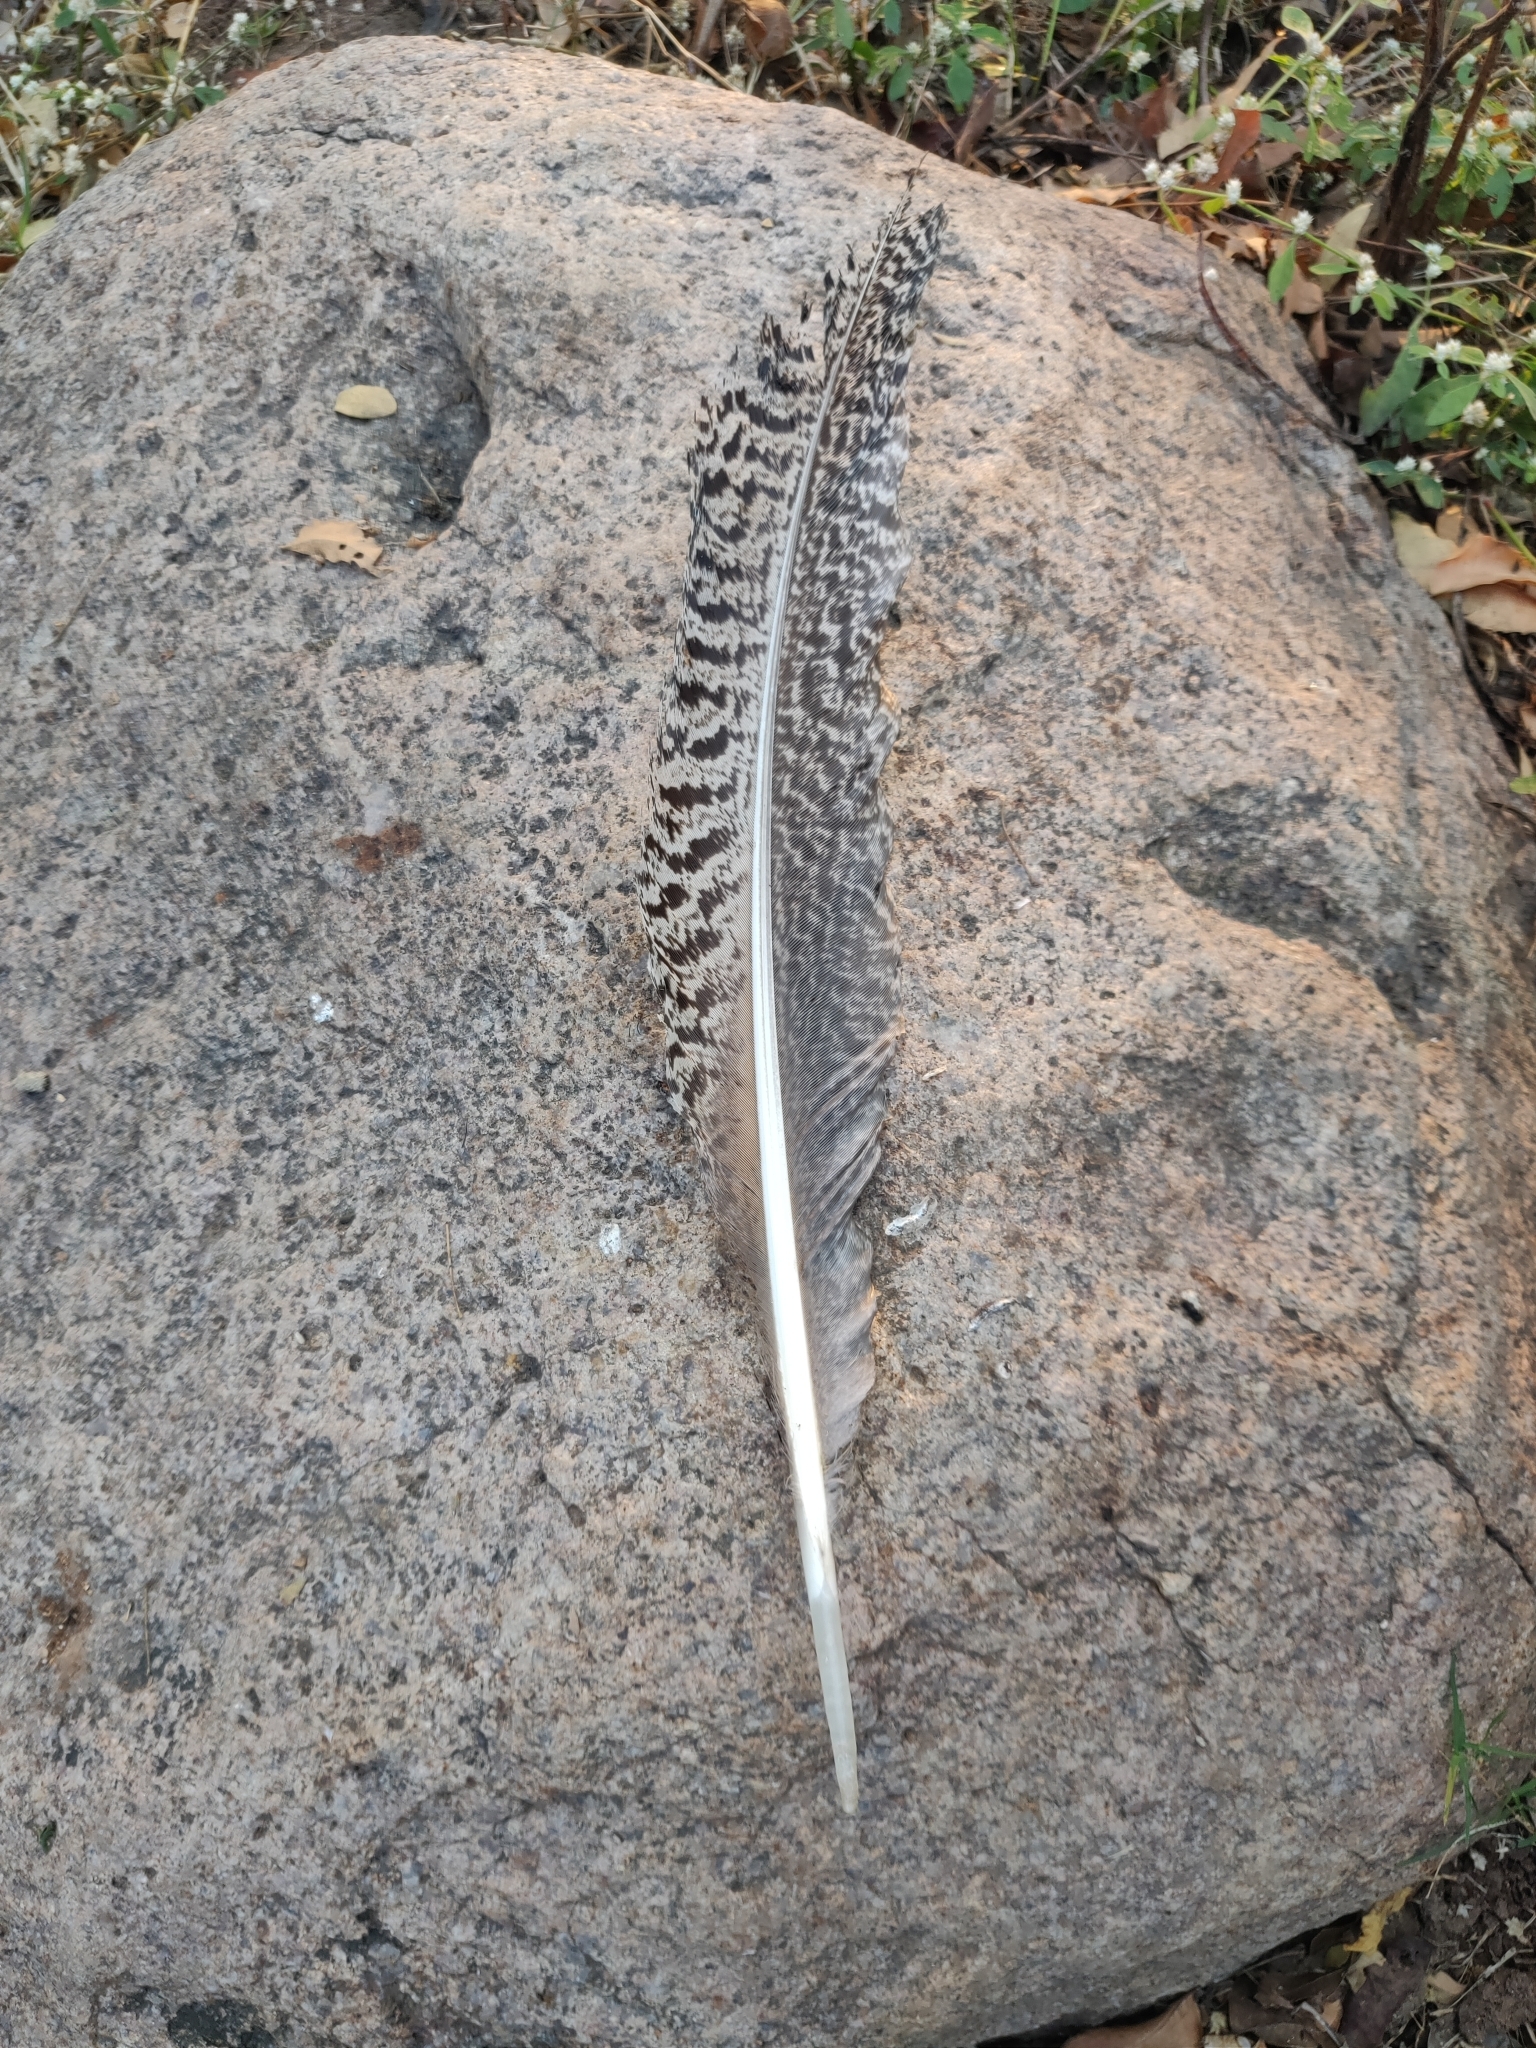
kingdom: Animalia
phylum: Chordata
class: Aves
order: Galliformes
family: Phasianidae
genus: Pavo
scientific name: Pavo cristatus
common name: Indian peafowl
